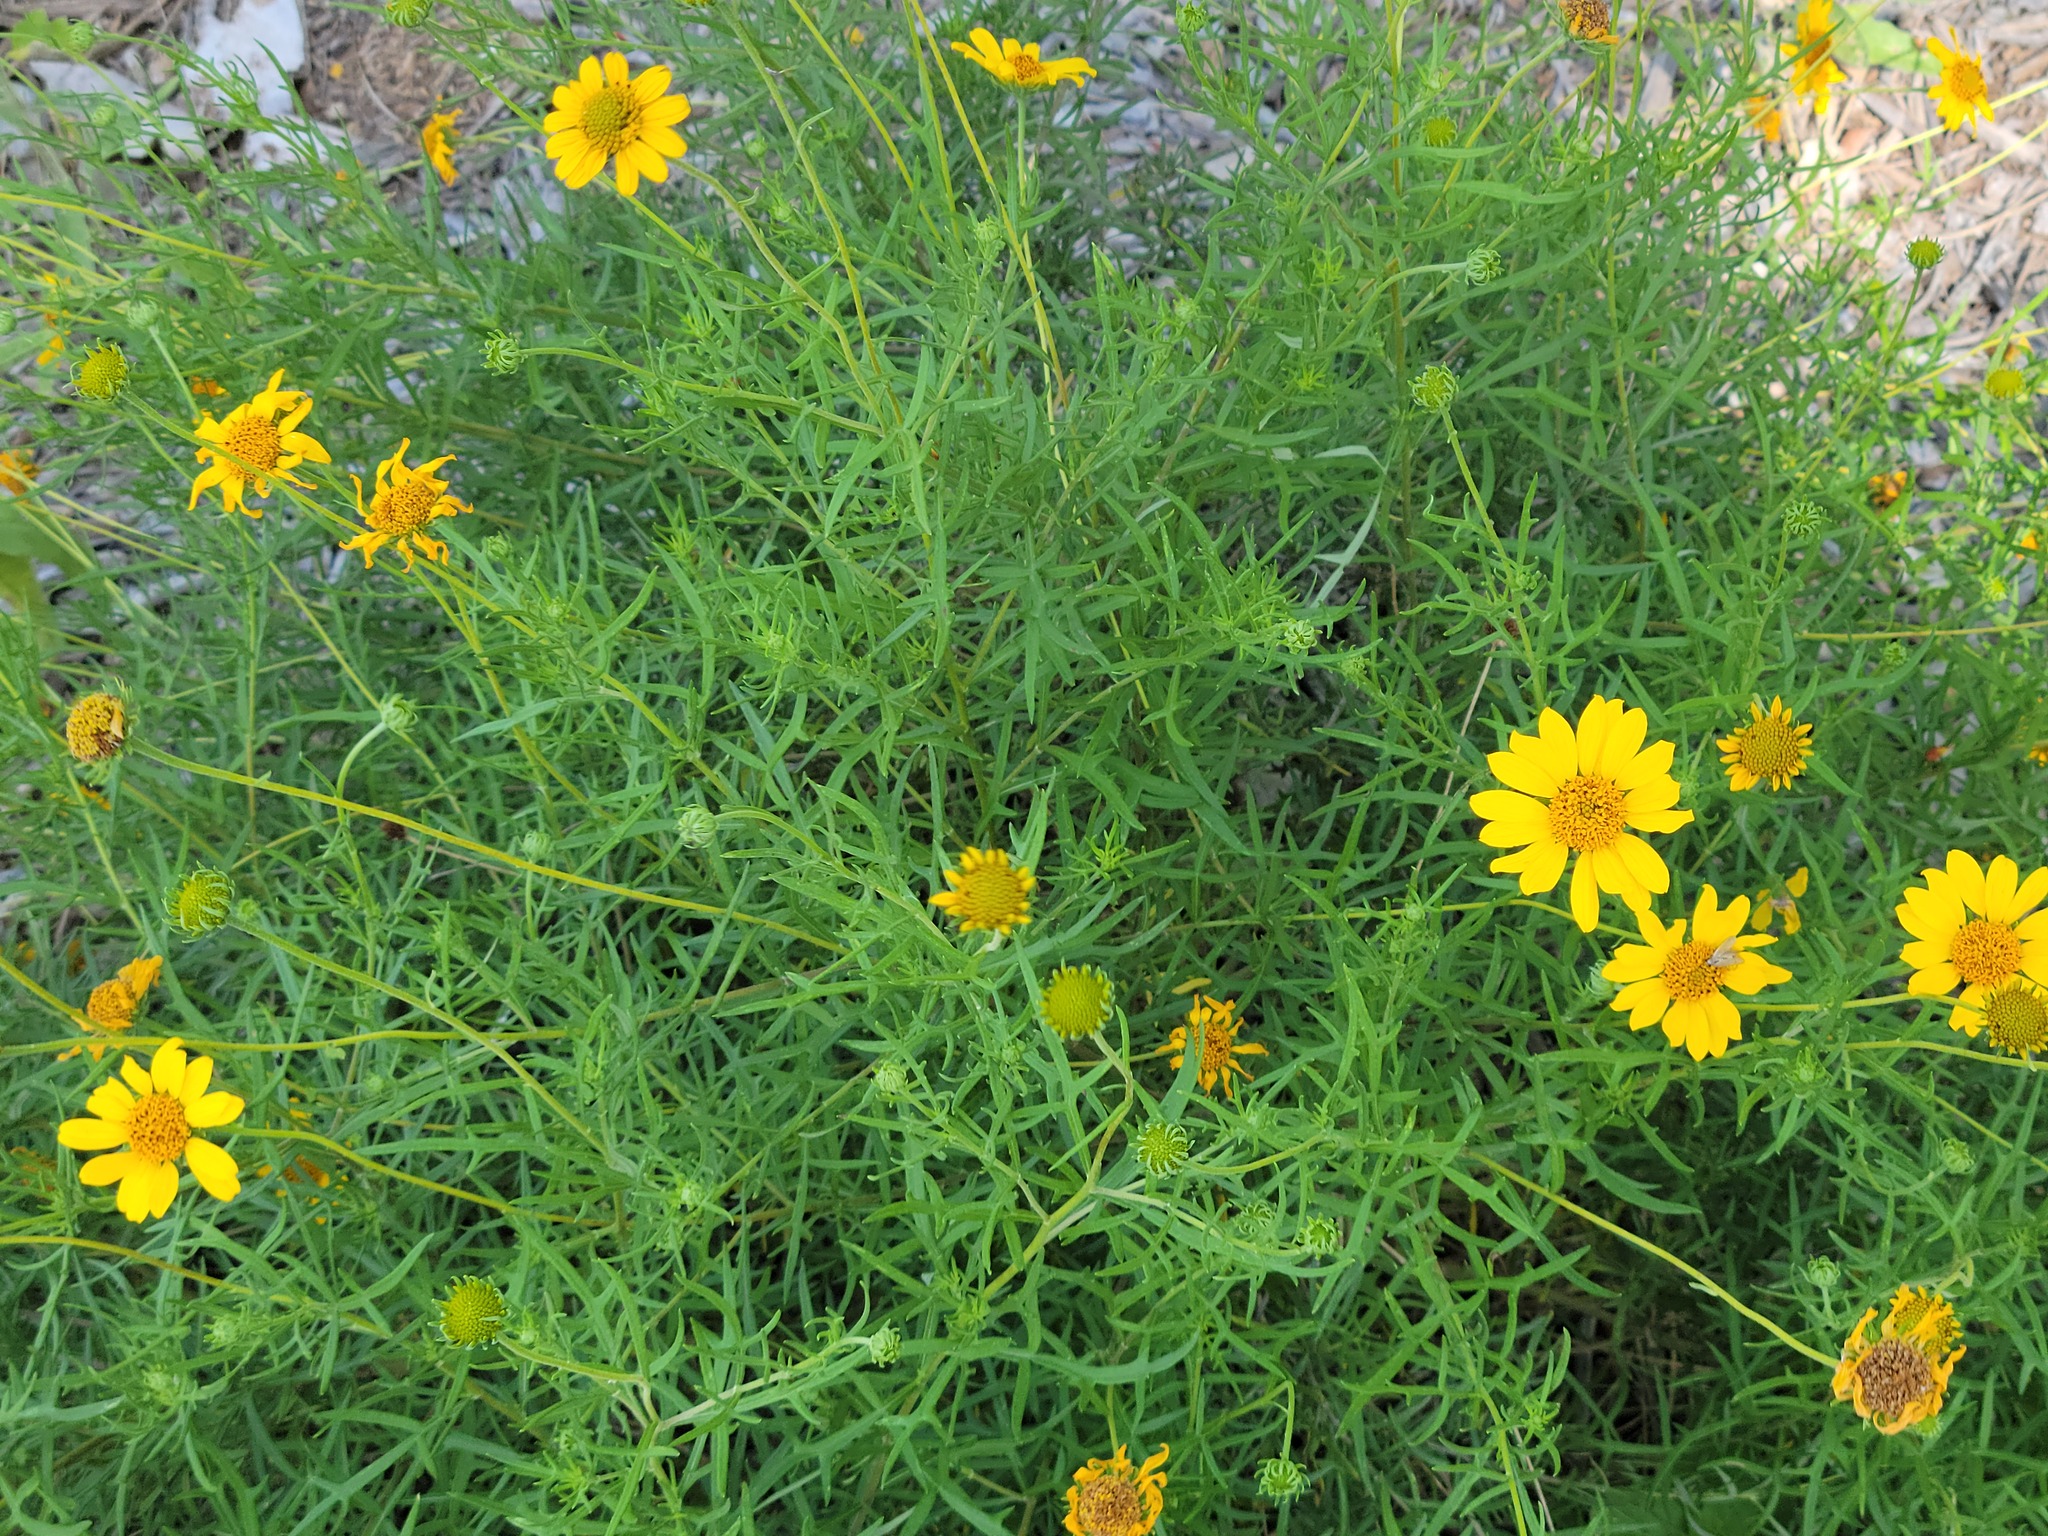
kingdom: Plantae
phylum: Tracheophyta
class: Magnoliopsida
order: Asterales
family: Asteraceae
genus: Sidneya
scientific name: Sidneya tenuifolia
